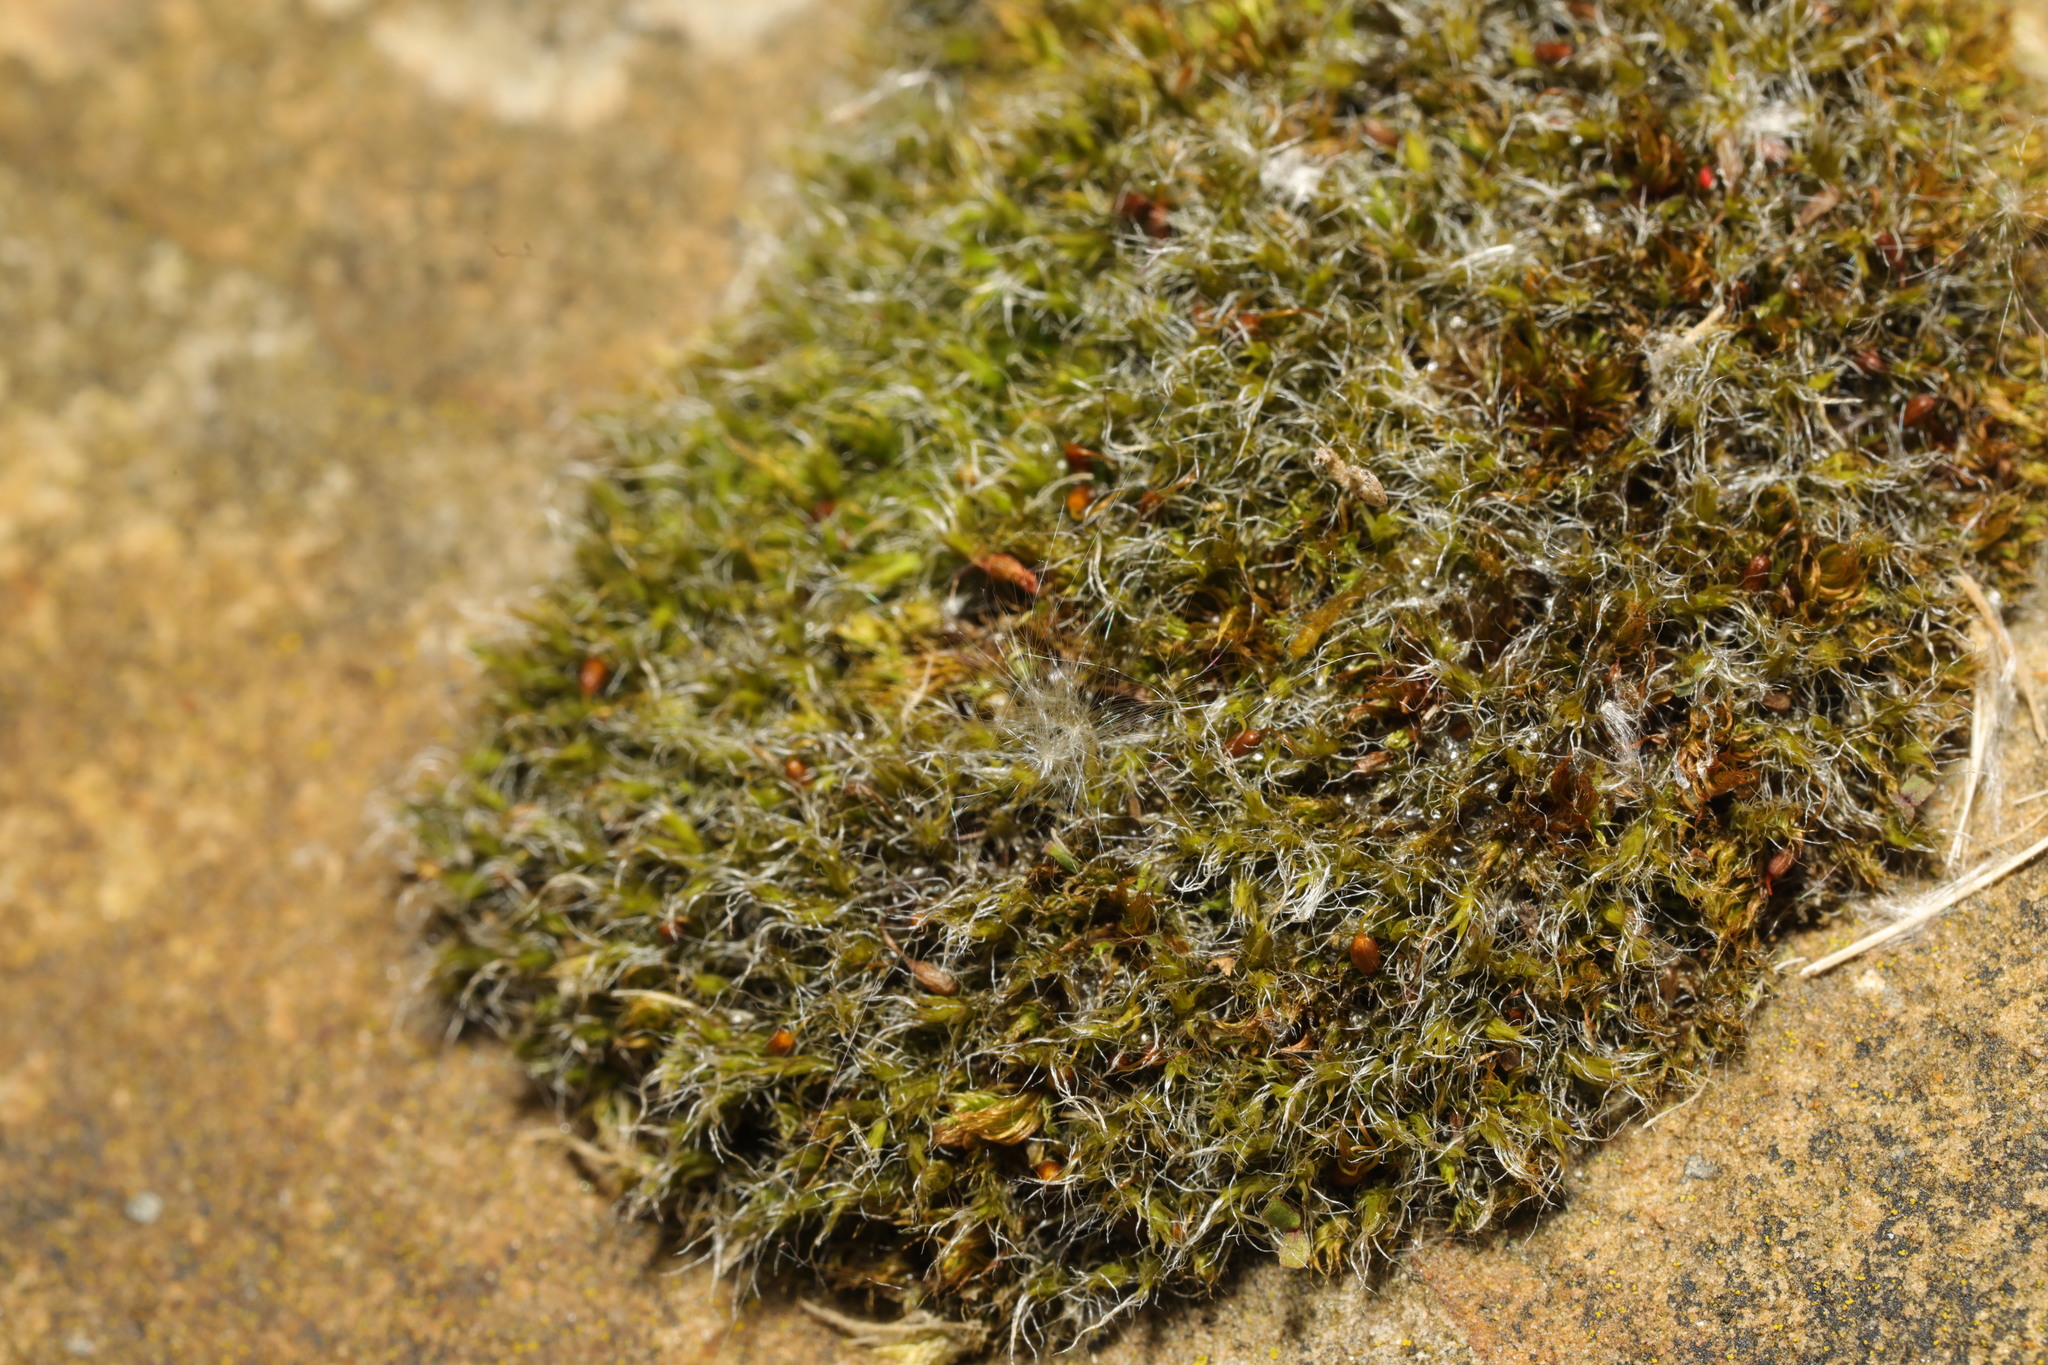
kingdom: Plantae
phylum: Bryophyta
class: Bryopsida
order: Grimmiales
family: Grimmiaceae
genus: Grimmia
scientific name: Grimmia pulvinata
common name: Grey-cushioned grimmia
